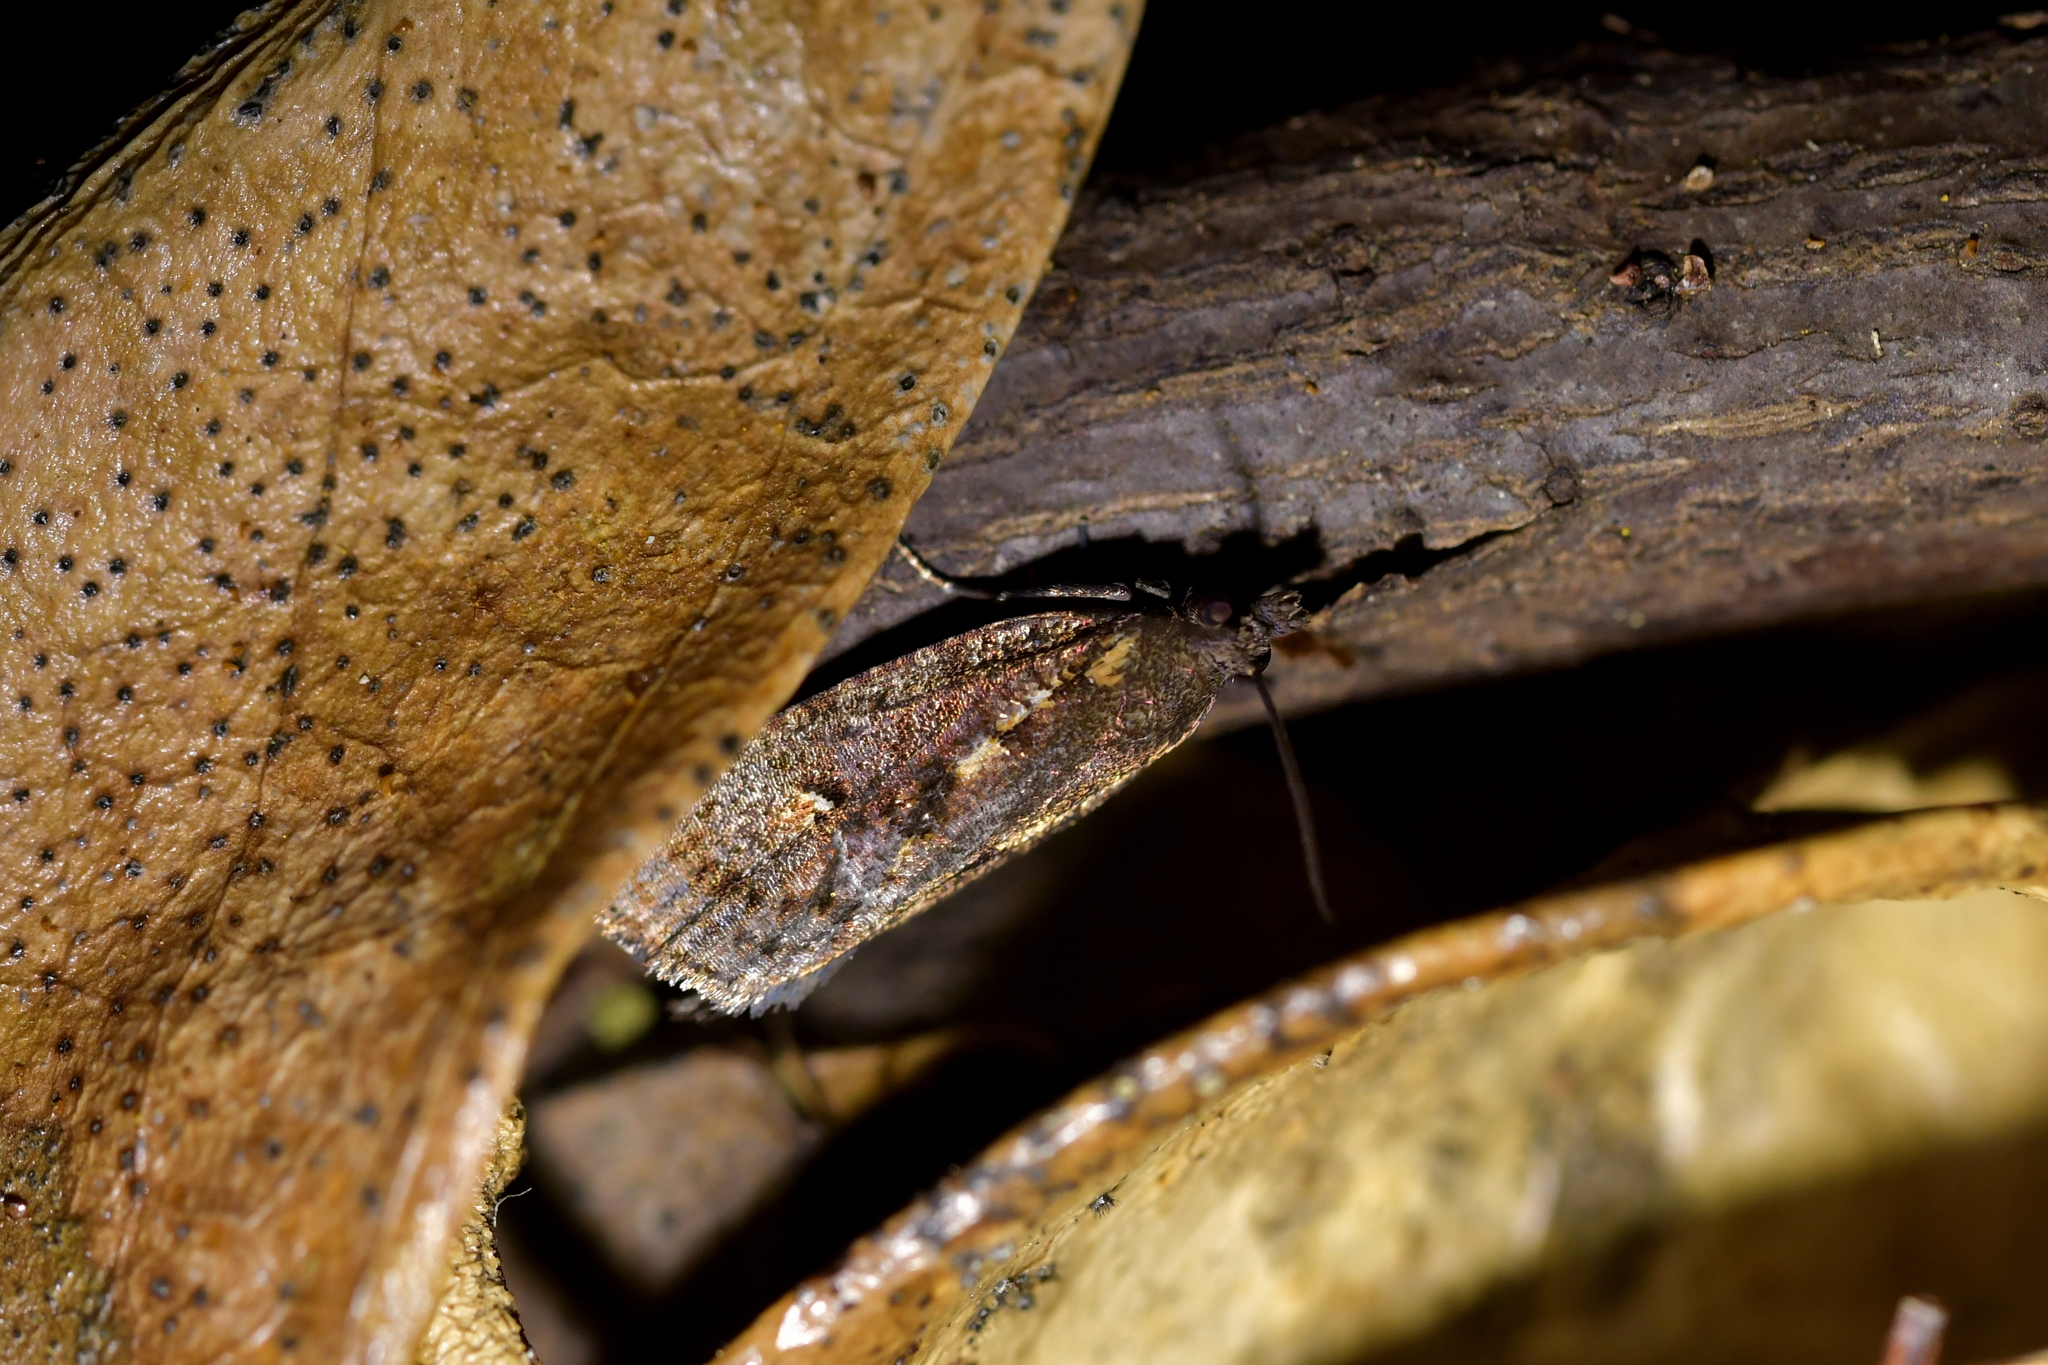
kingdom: Animalia
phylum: Arthropoda
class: Insecta
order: Lepidoptera
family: Tortricidae
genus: Cryptaspasma
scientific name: Cryptaspasma querula
